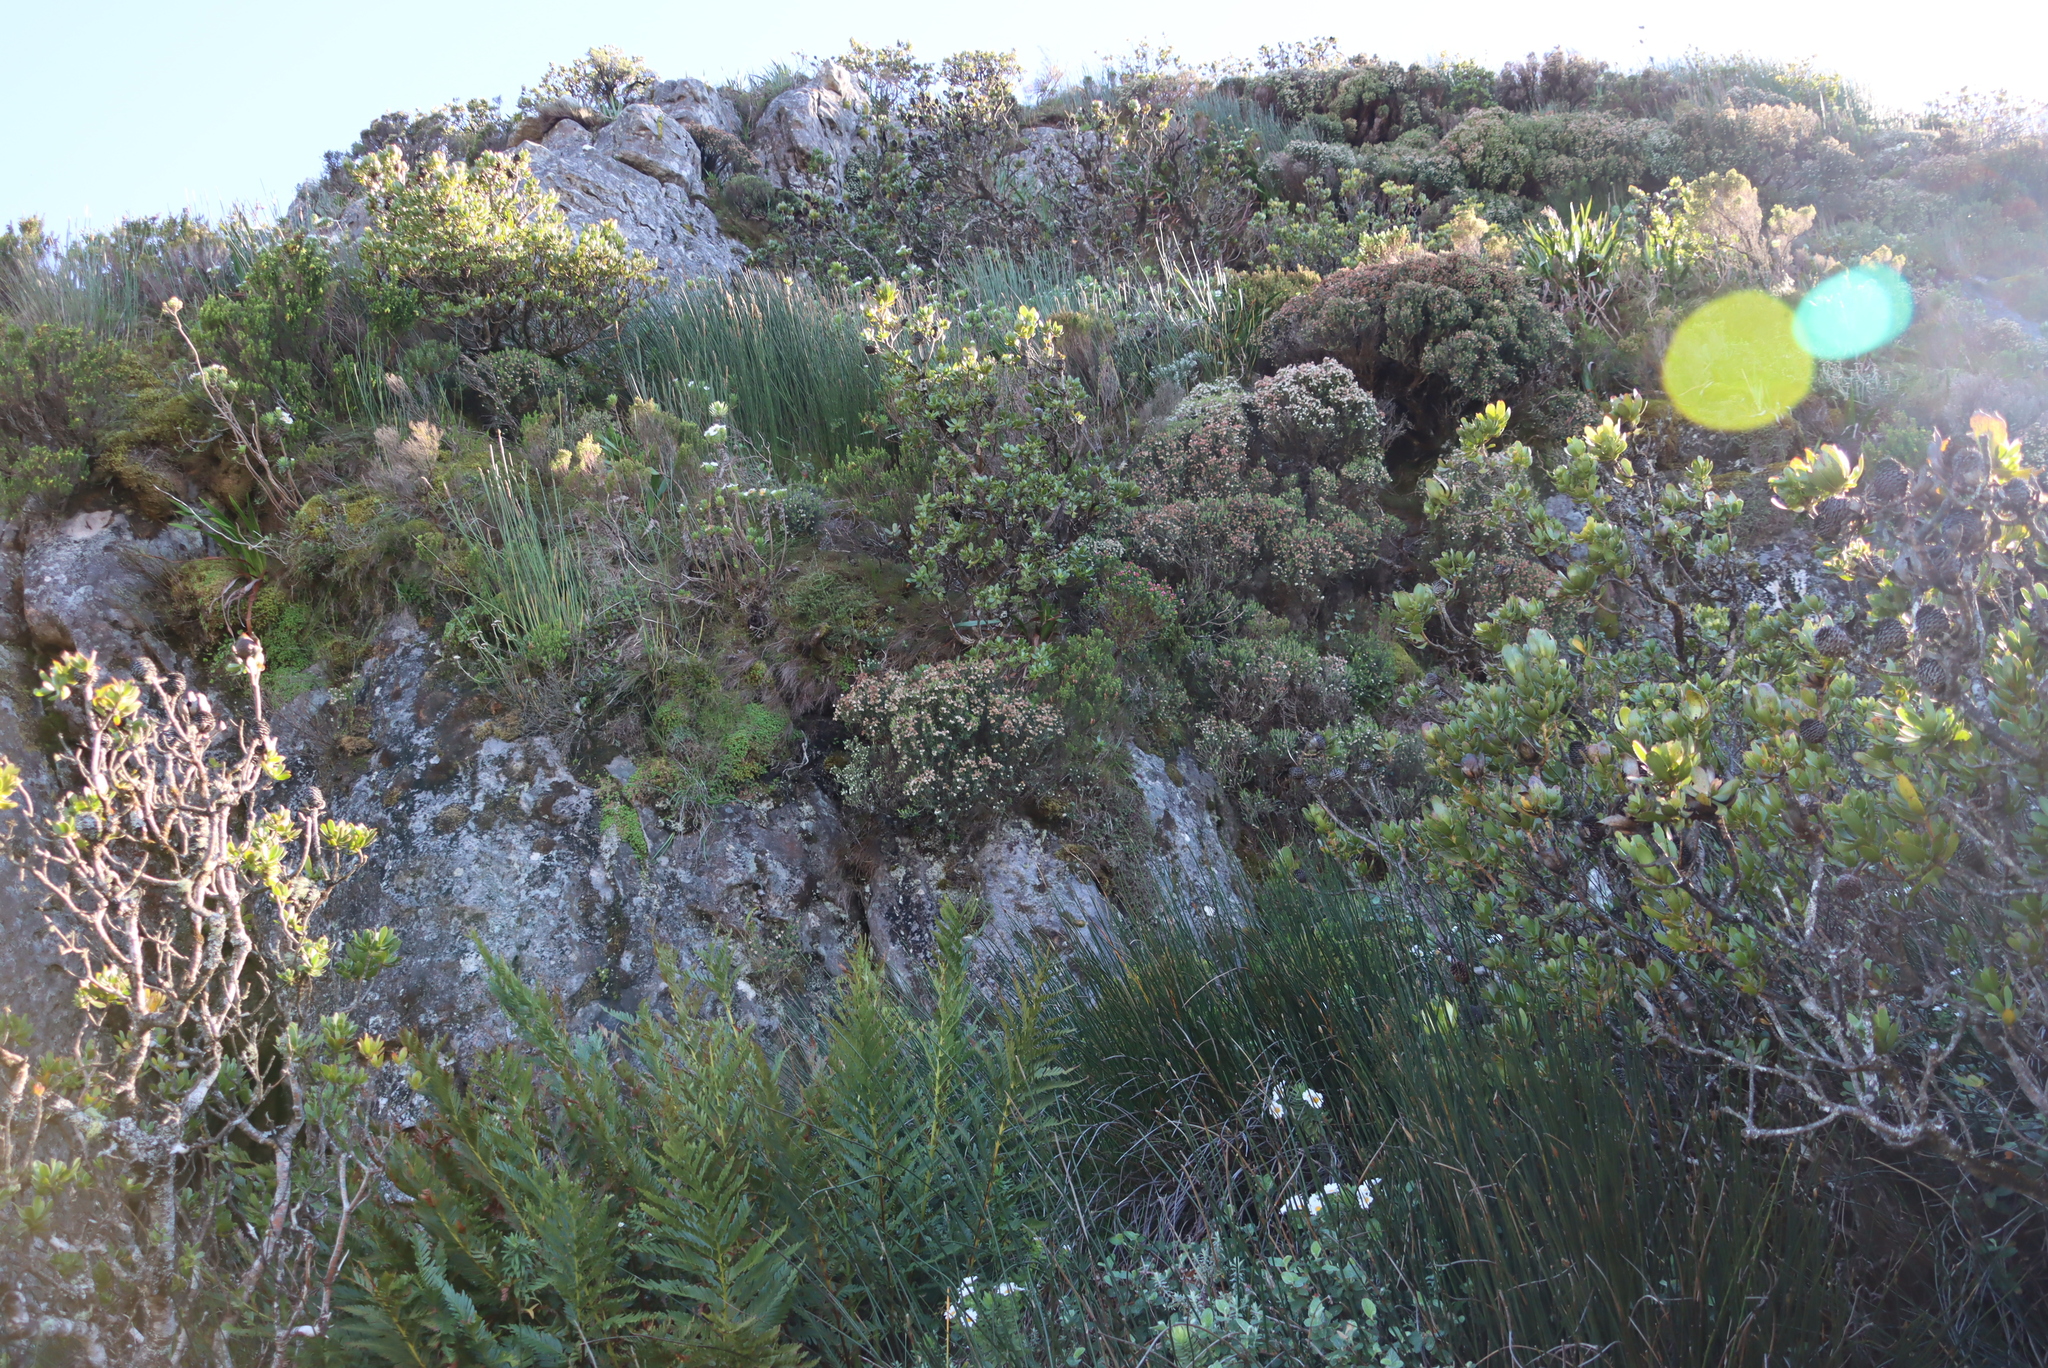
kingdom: Plantae
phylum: Tracheophyta
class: Magnoliopsida
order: Ericales
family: Ericaceae
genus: Erica
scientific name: Erica triflora
